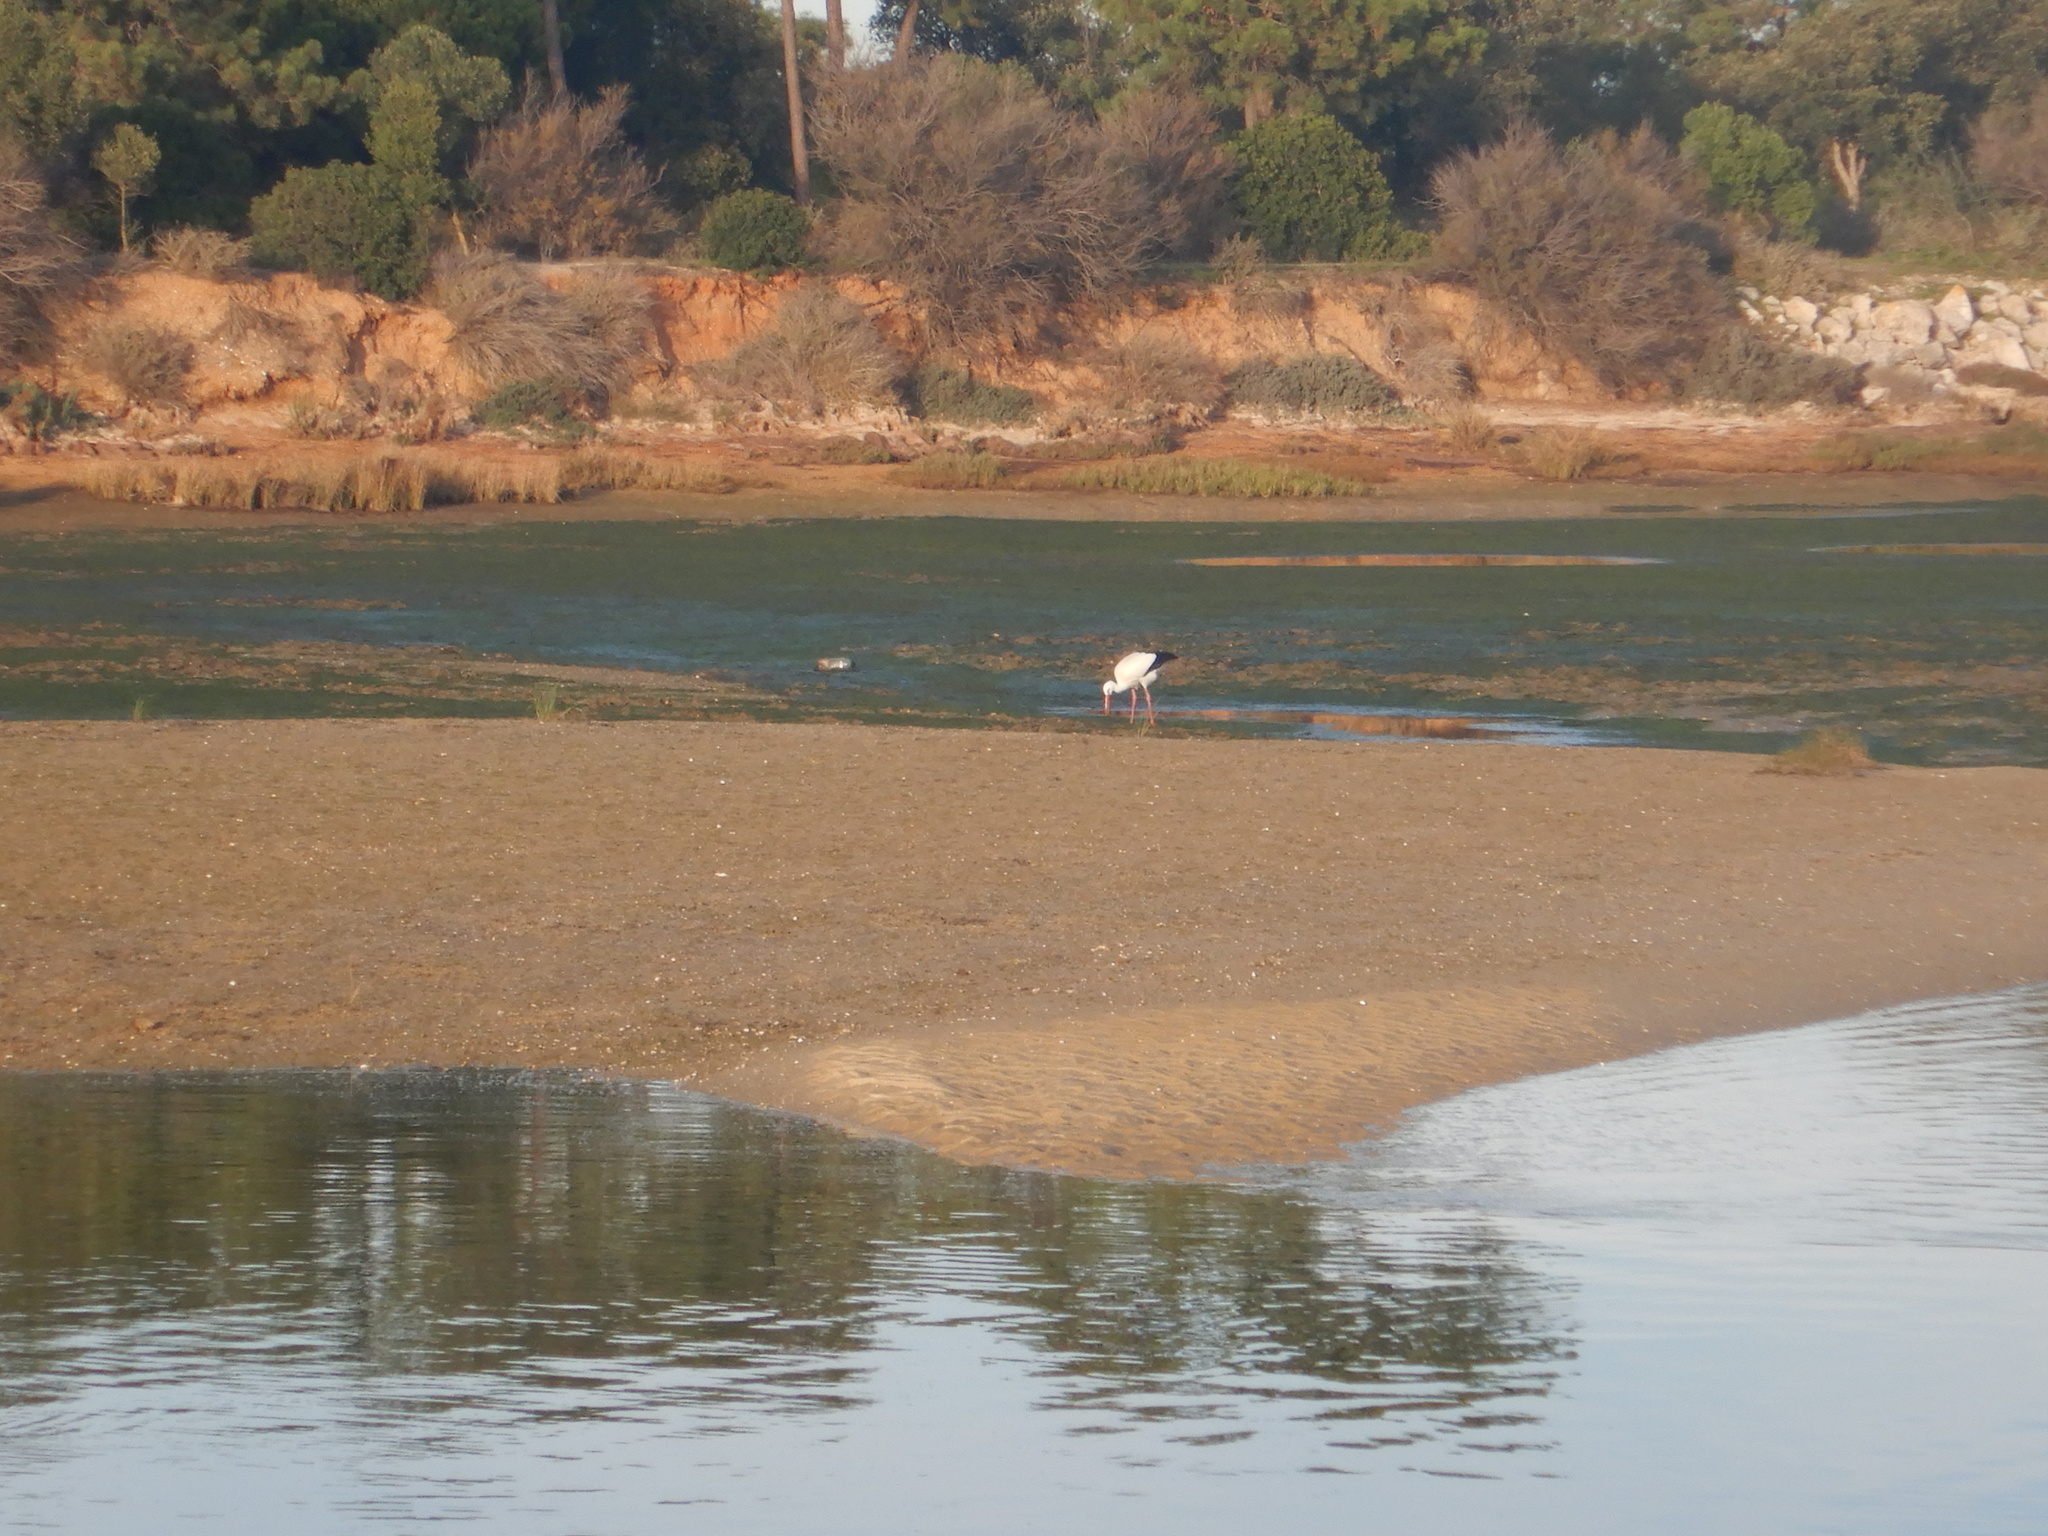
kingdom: Animalia
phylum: Chordata
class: Aves
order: Ciconiiformes
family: Ciconiidae
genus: Ciconia
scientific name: Ciconia ciconia
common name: White stork
